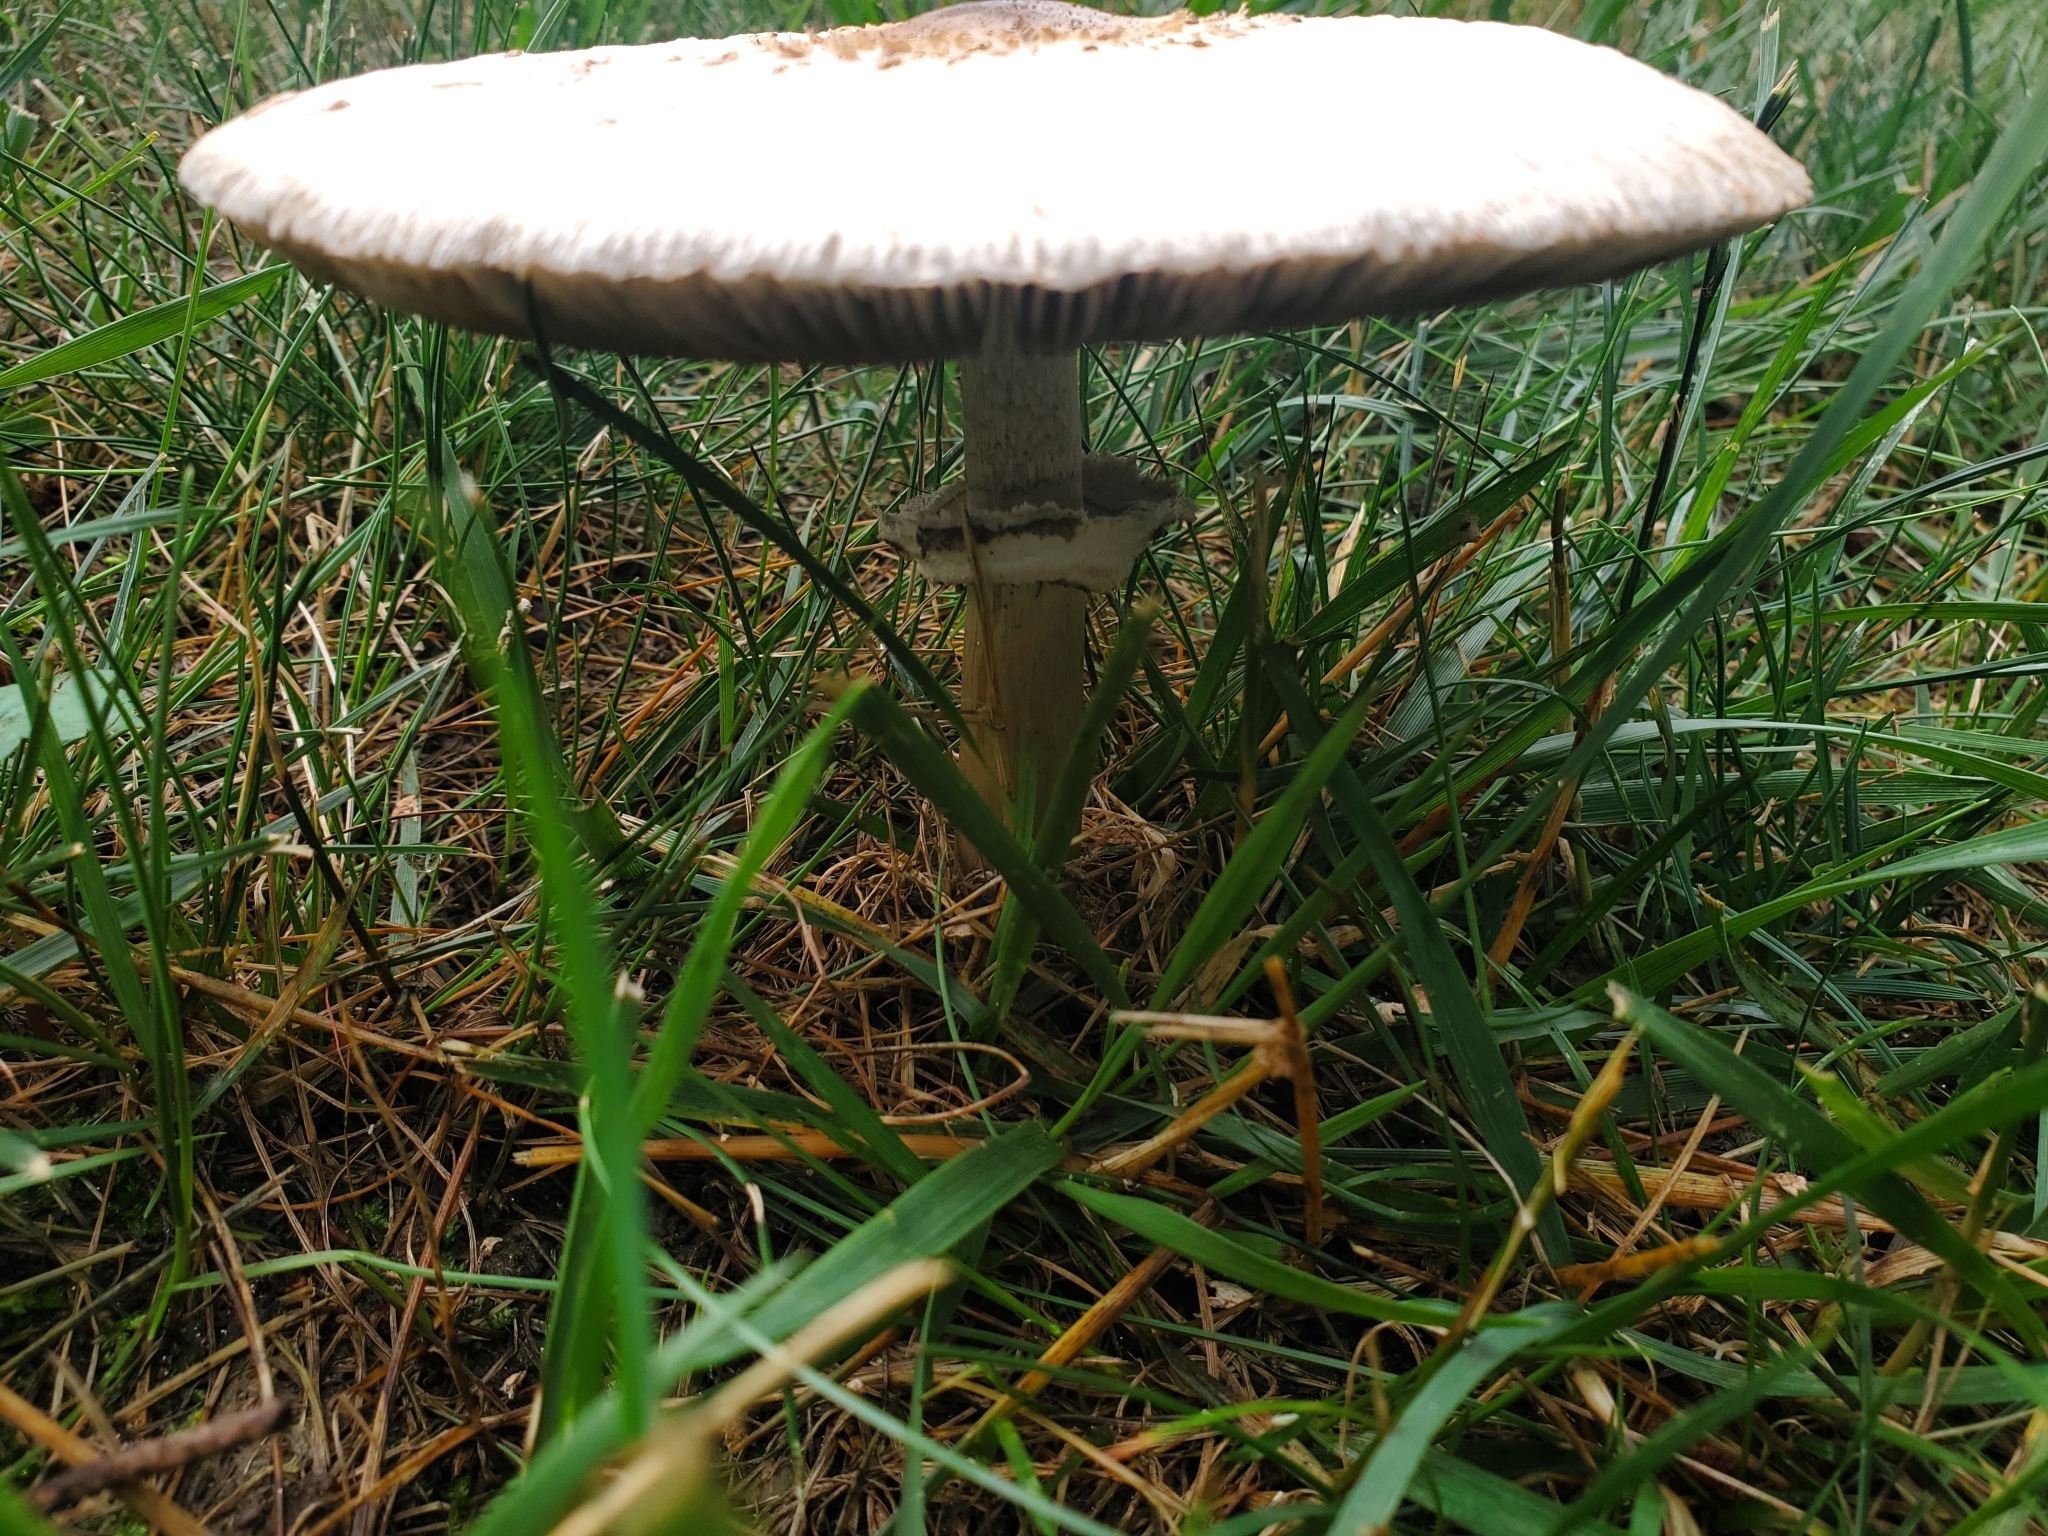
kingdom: Fungi
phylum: Basidiomycota
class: Agaricomycetes
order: Agaricales
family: Agaricaceae
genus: Chlorophyllum
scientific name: Chlorophyllum molybdites
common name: False parasol
